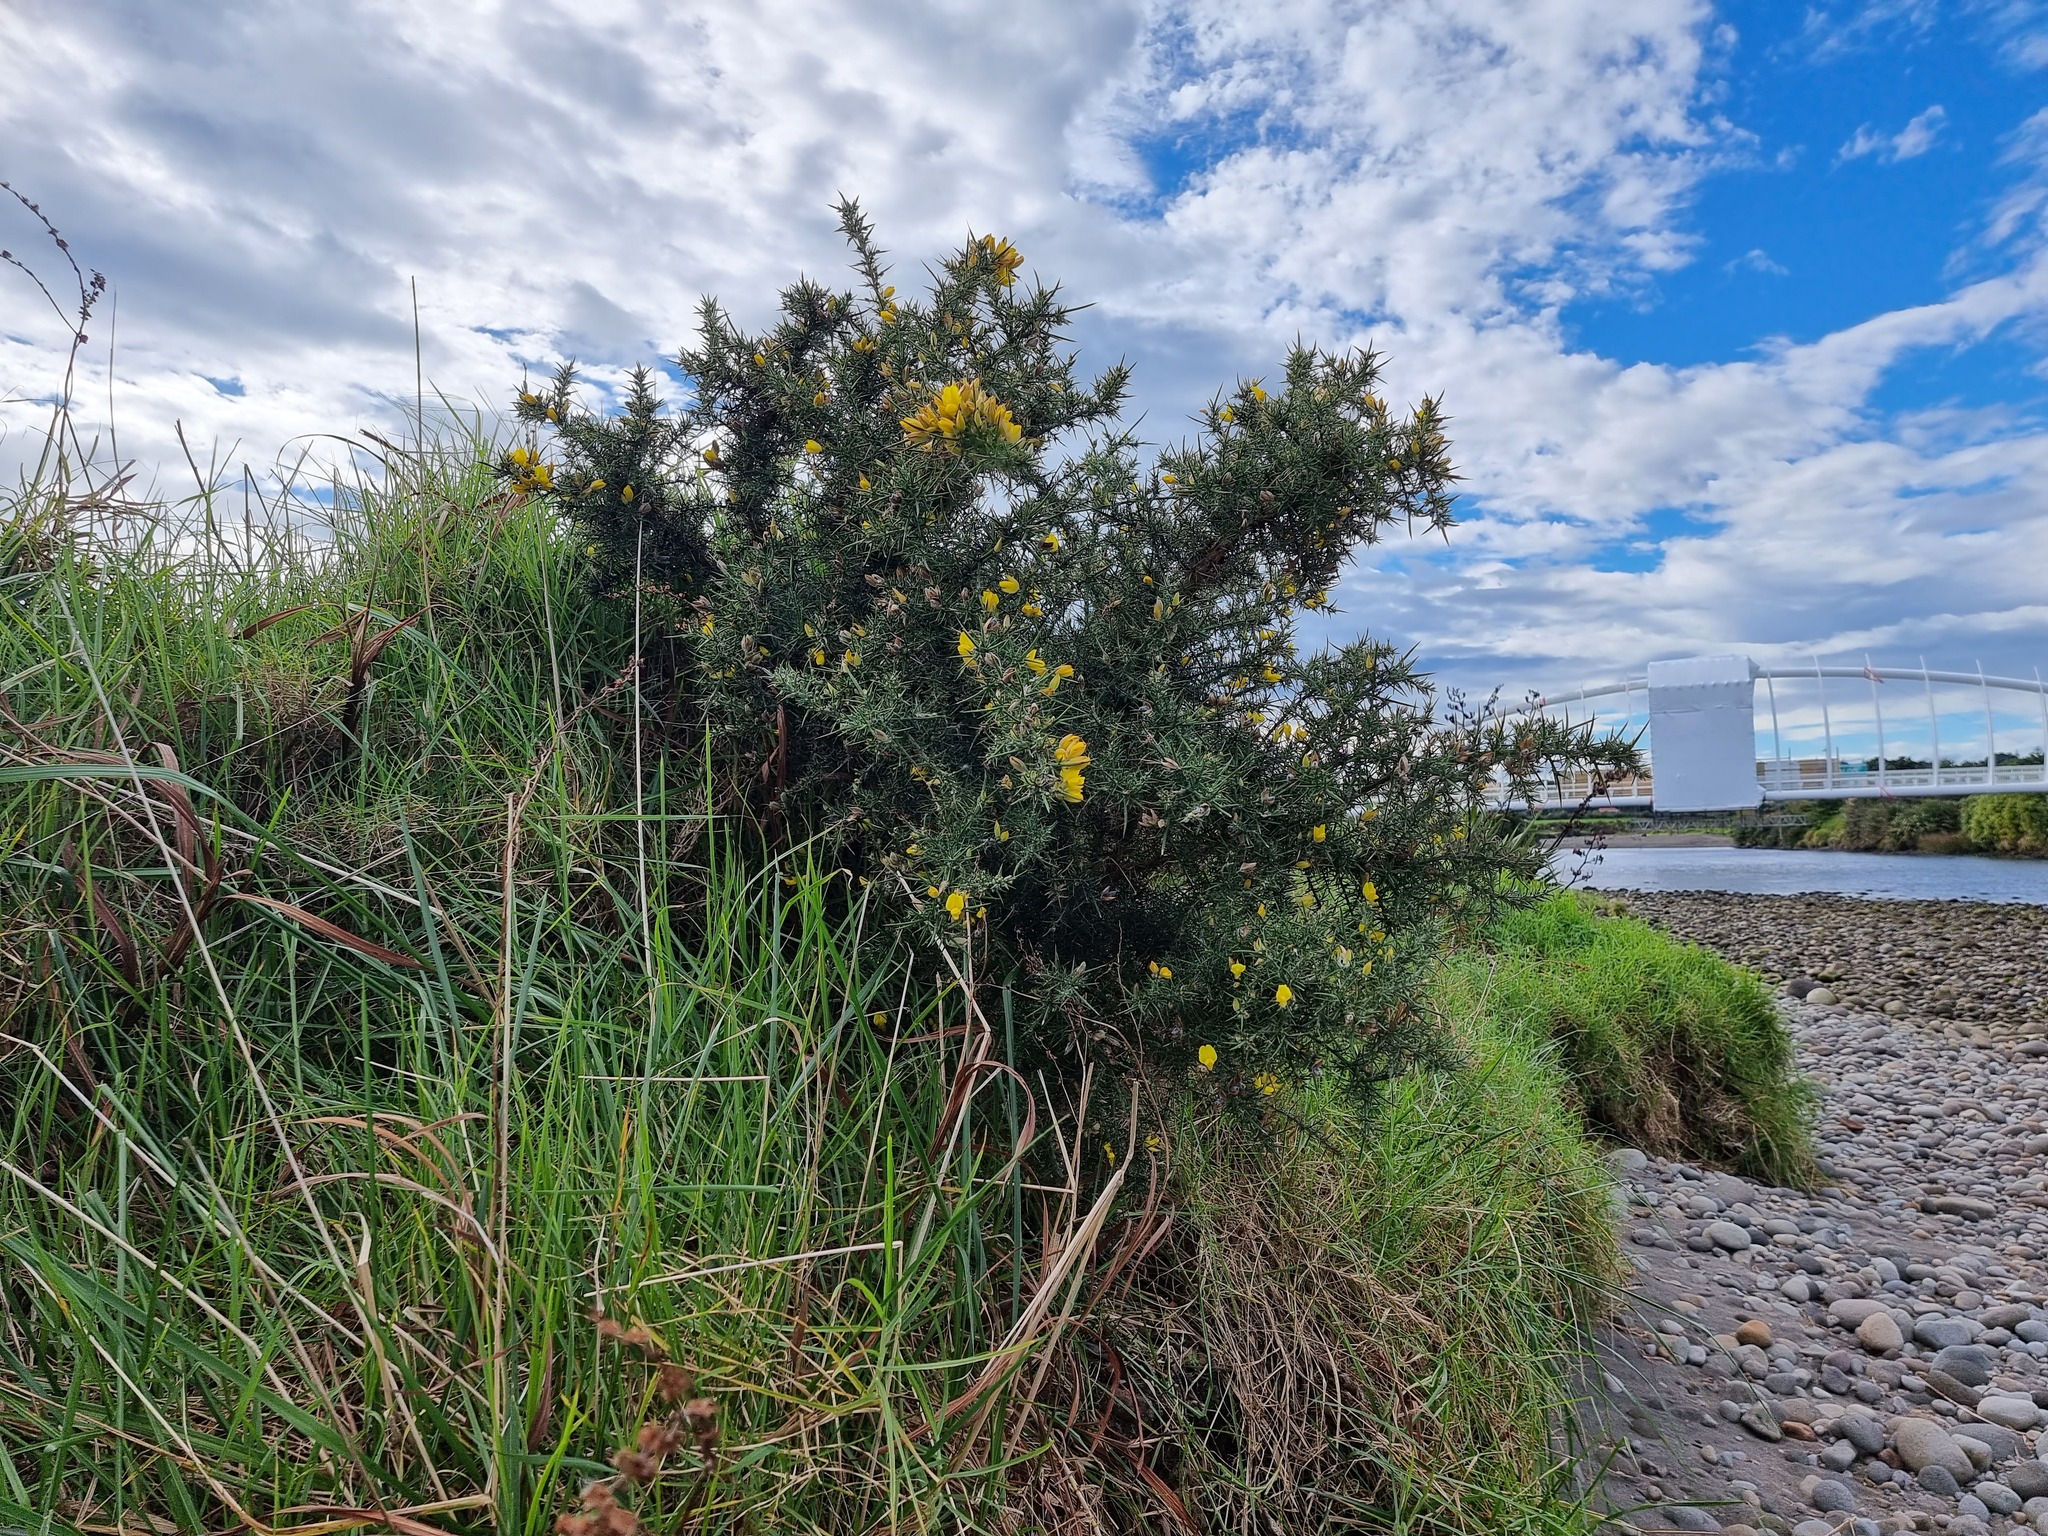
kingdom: Plantae
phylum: Tracheophyta
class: Magnoliopsida
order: Fabales
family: Fabaceae
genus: Ulex
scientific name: Ulex europaeus
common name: Common gorse
